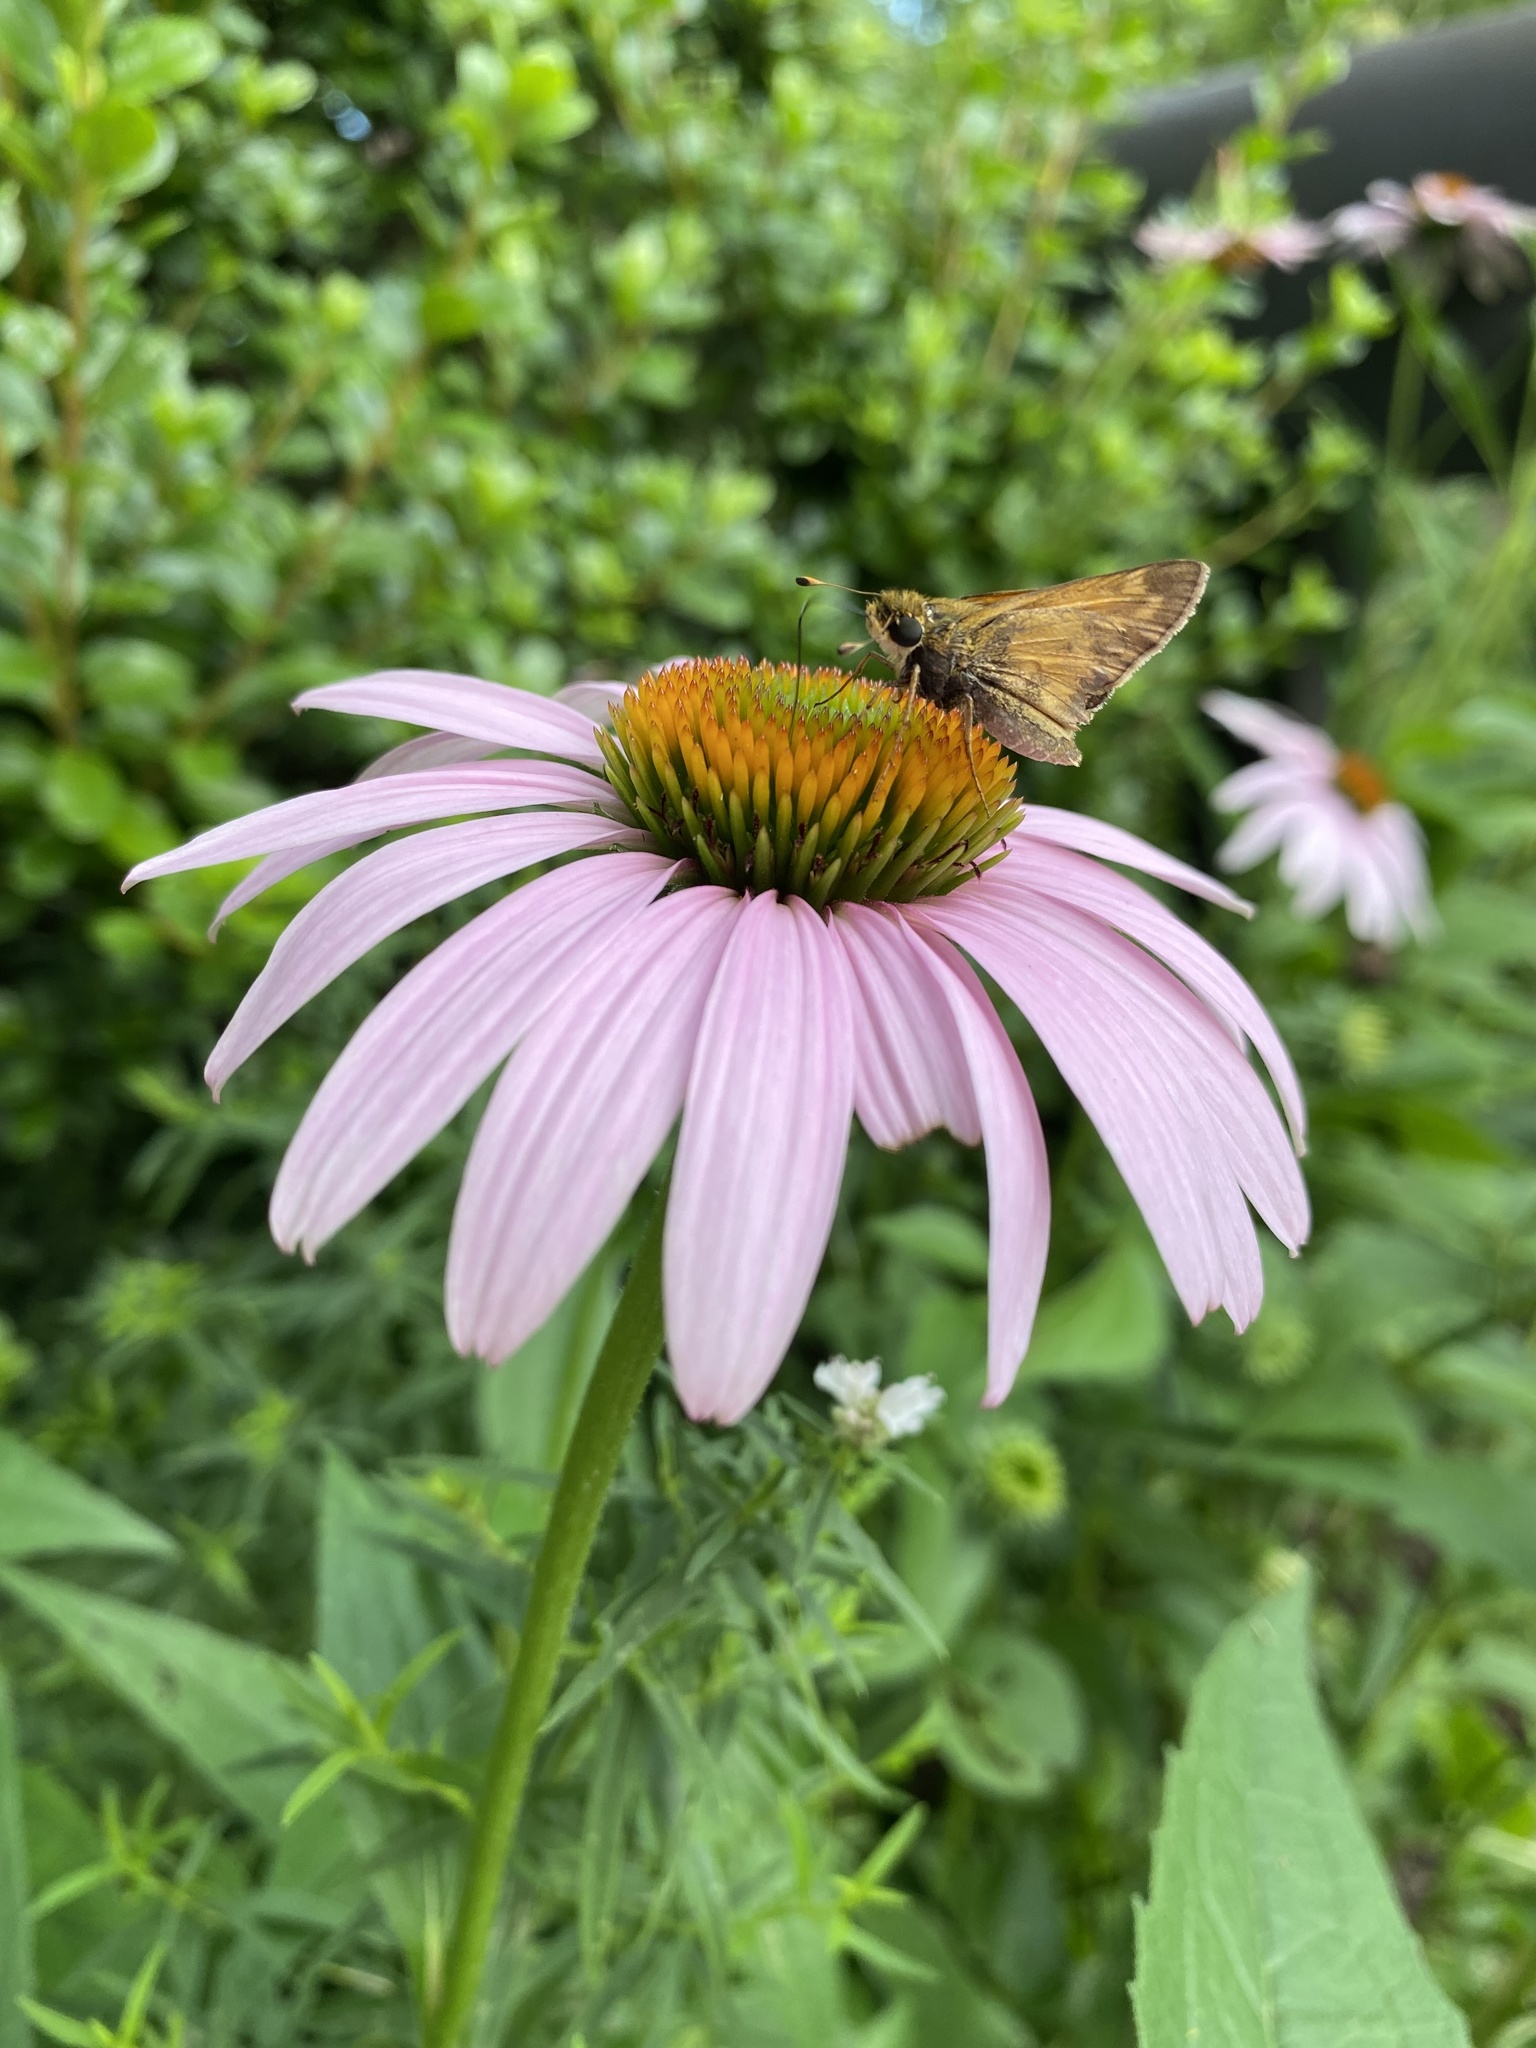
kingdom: Animalia
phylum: Arthropoda
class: Insecta
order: Lepidoptera
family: Hesperiidae
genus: Atalopedes
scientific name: Atalopedes
